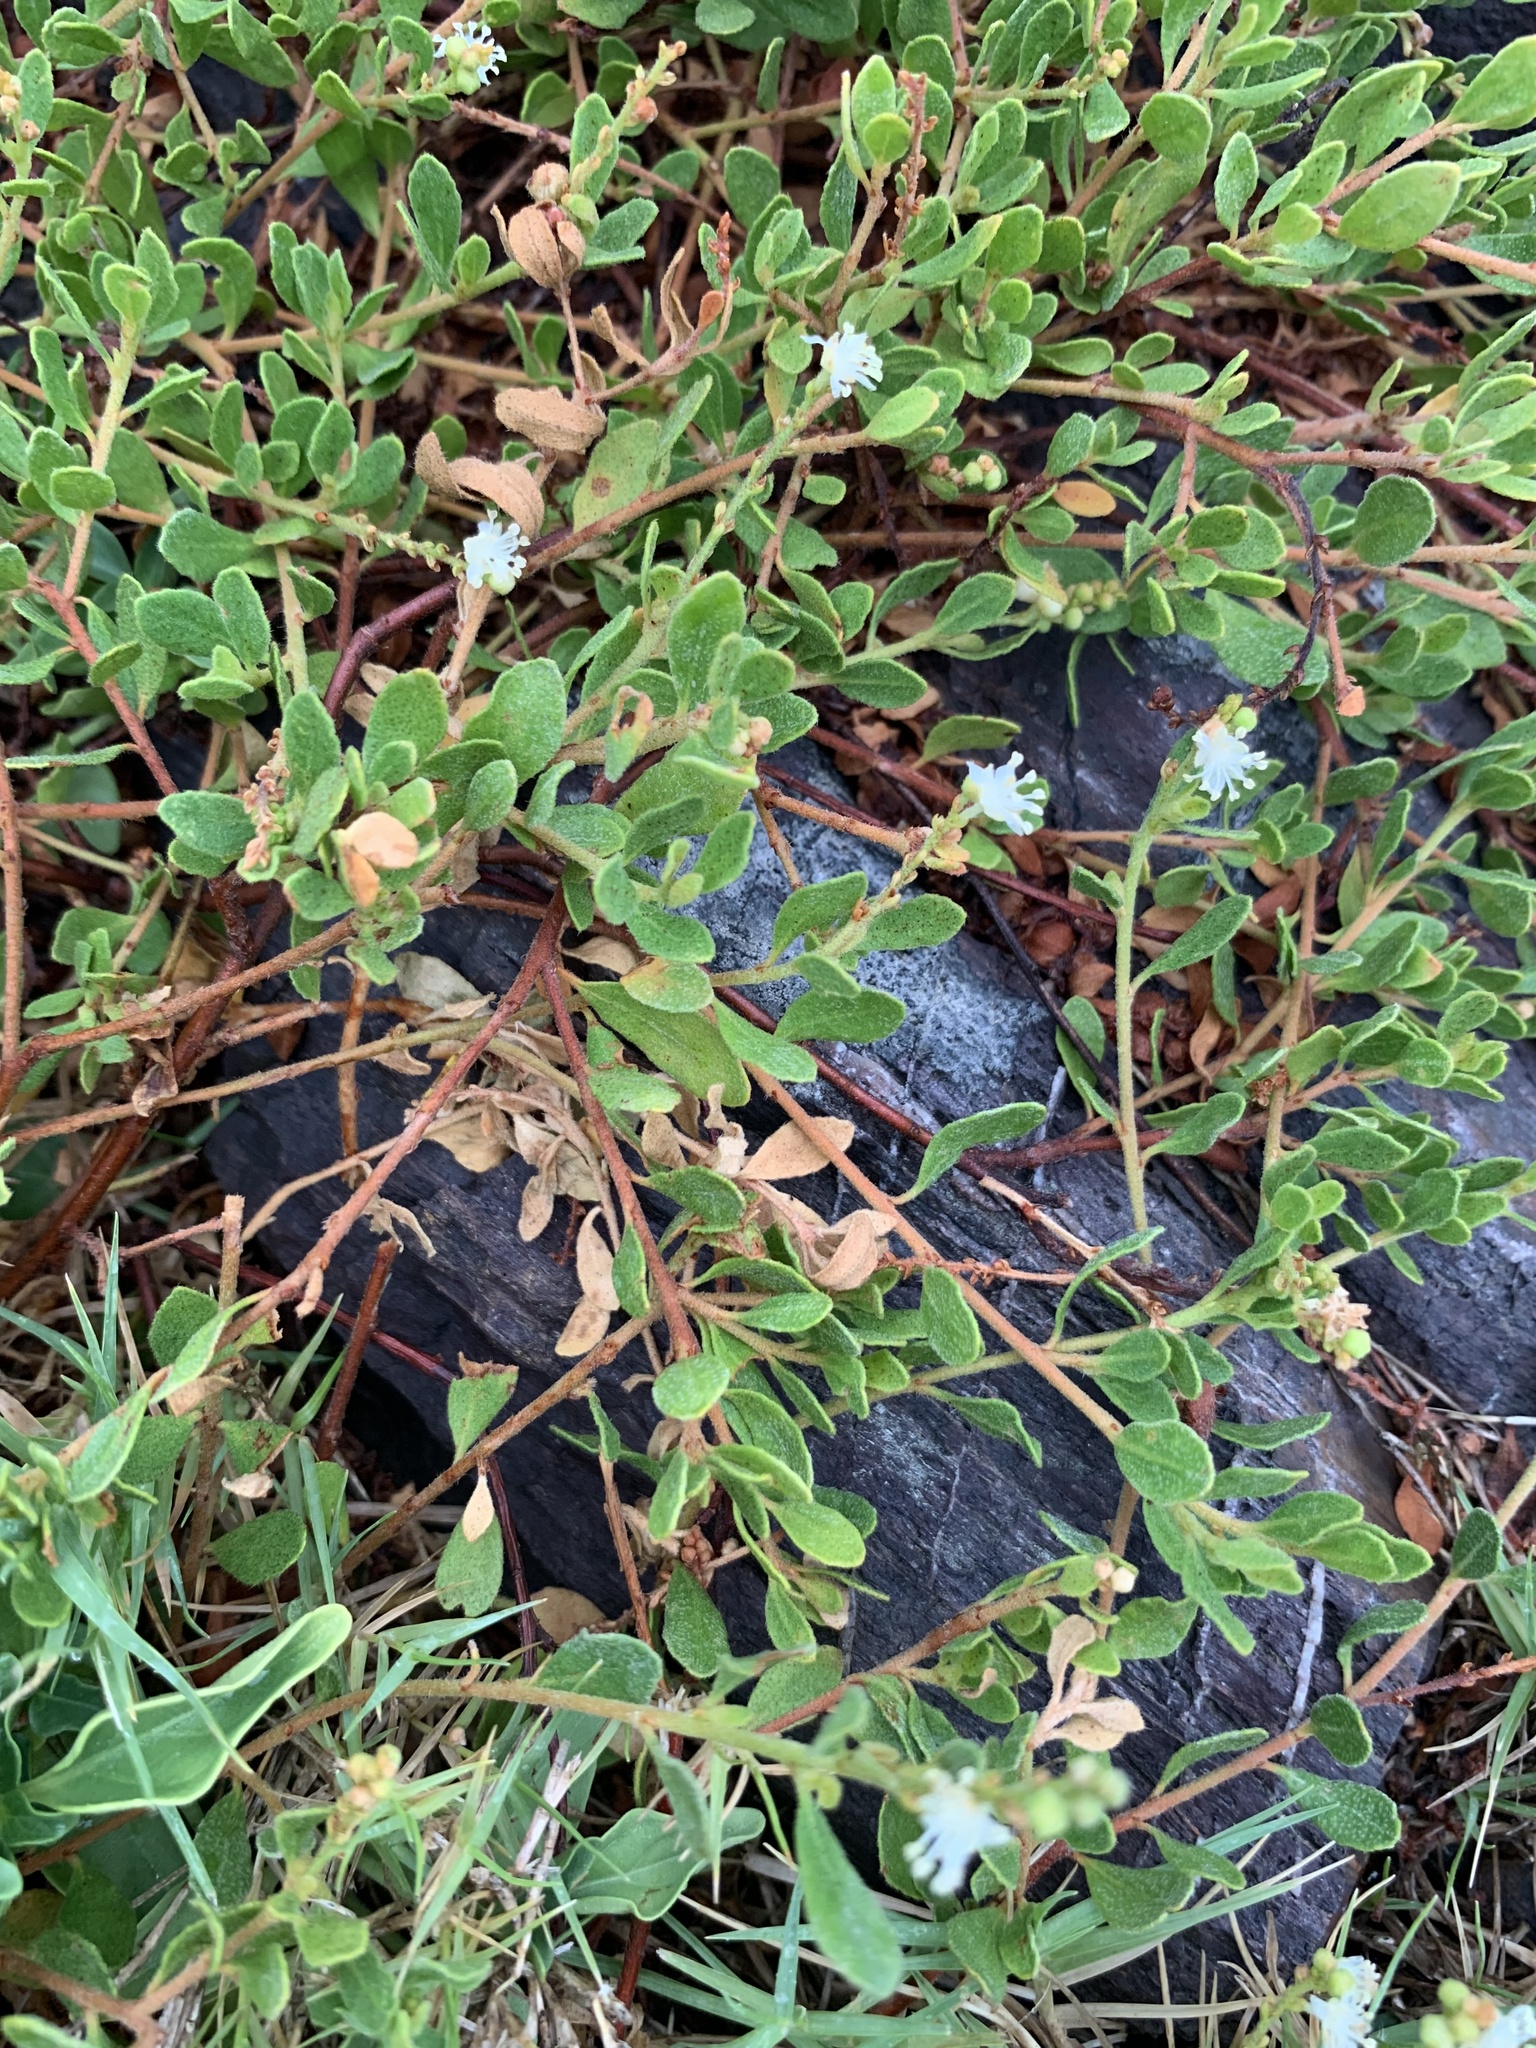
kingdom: Plantae
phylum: Tracheophyta
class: Magnoliopsida
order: Malpighiales
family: Euphorbiaceae
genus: Croton
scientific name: Croton nitrariifolius
